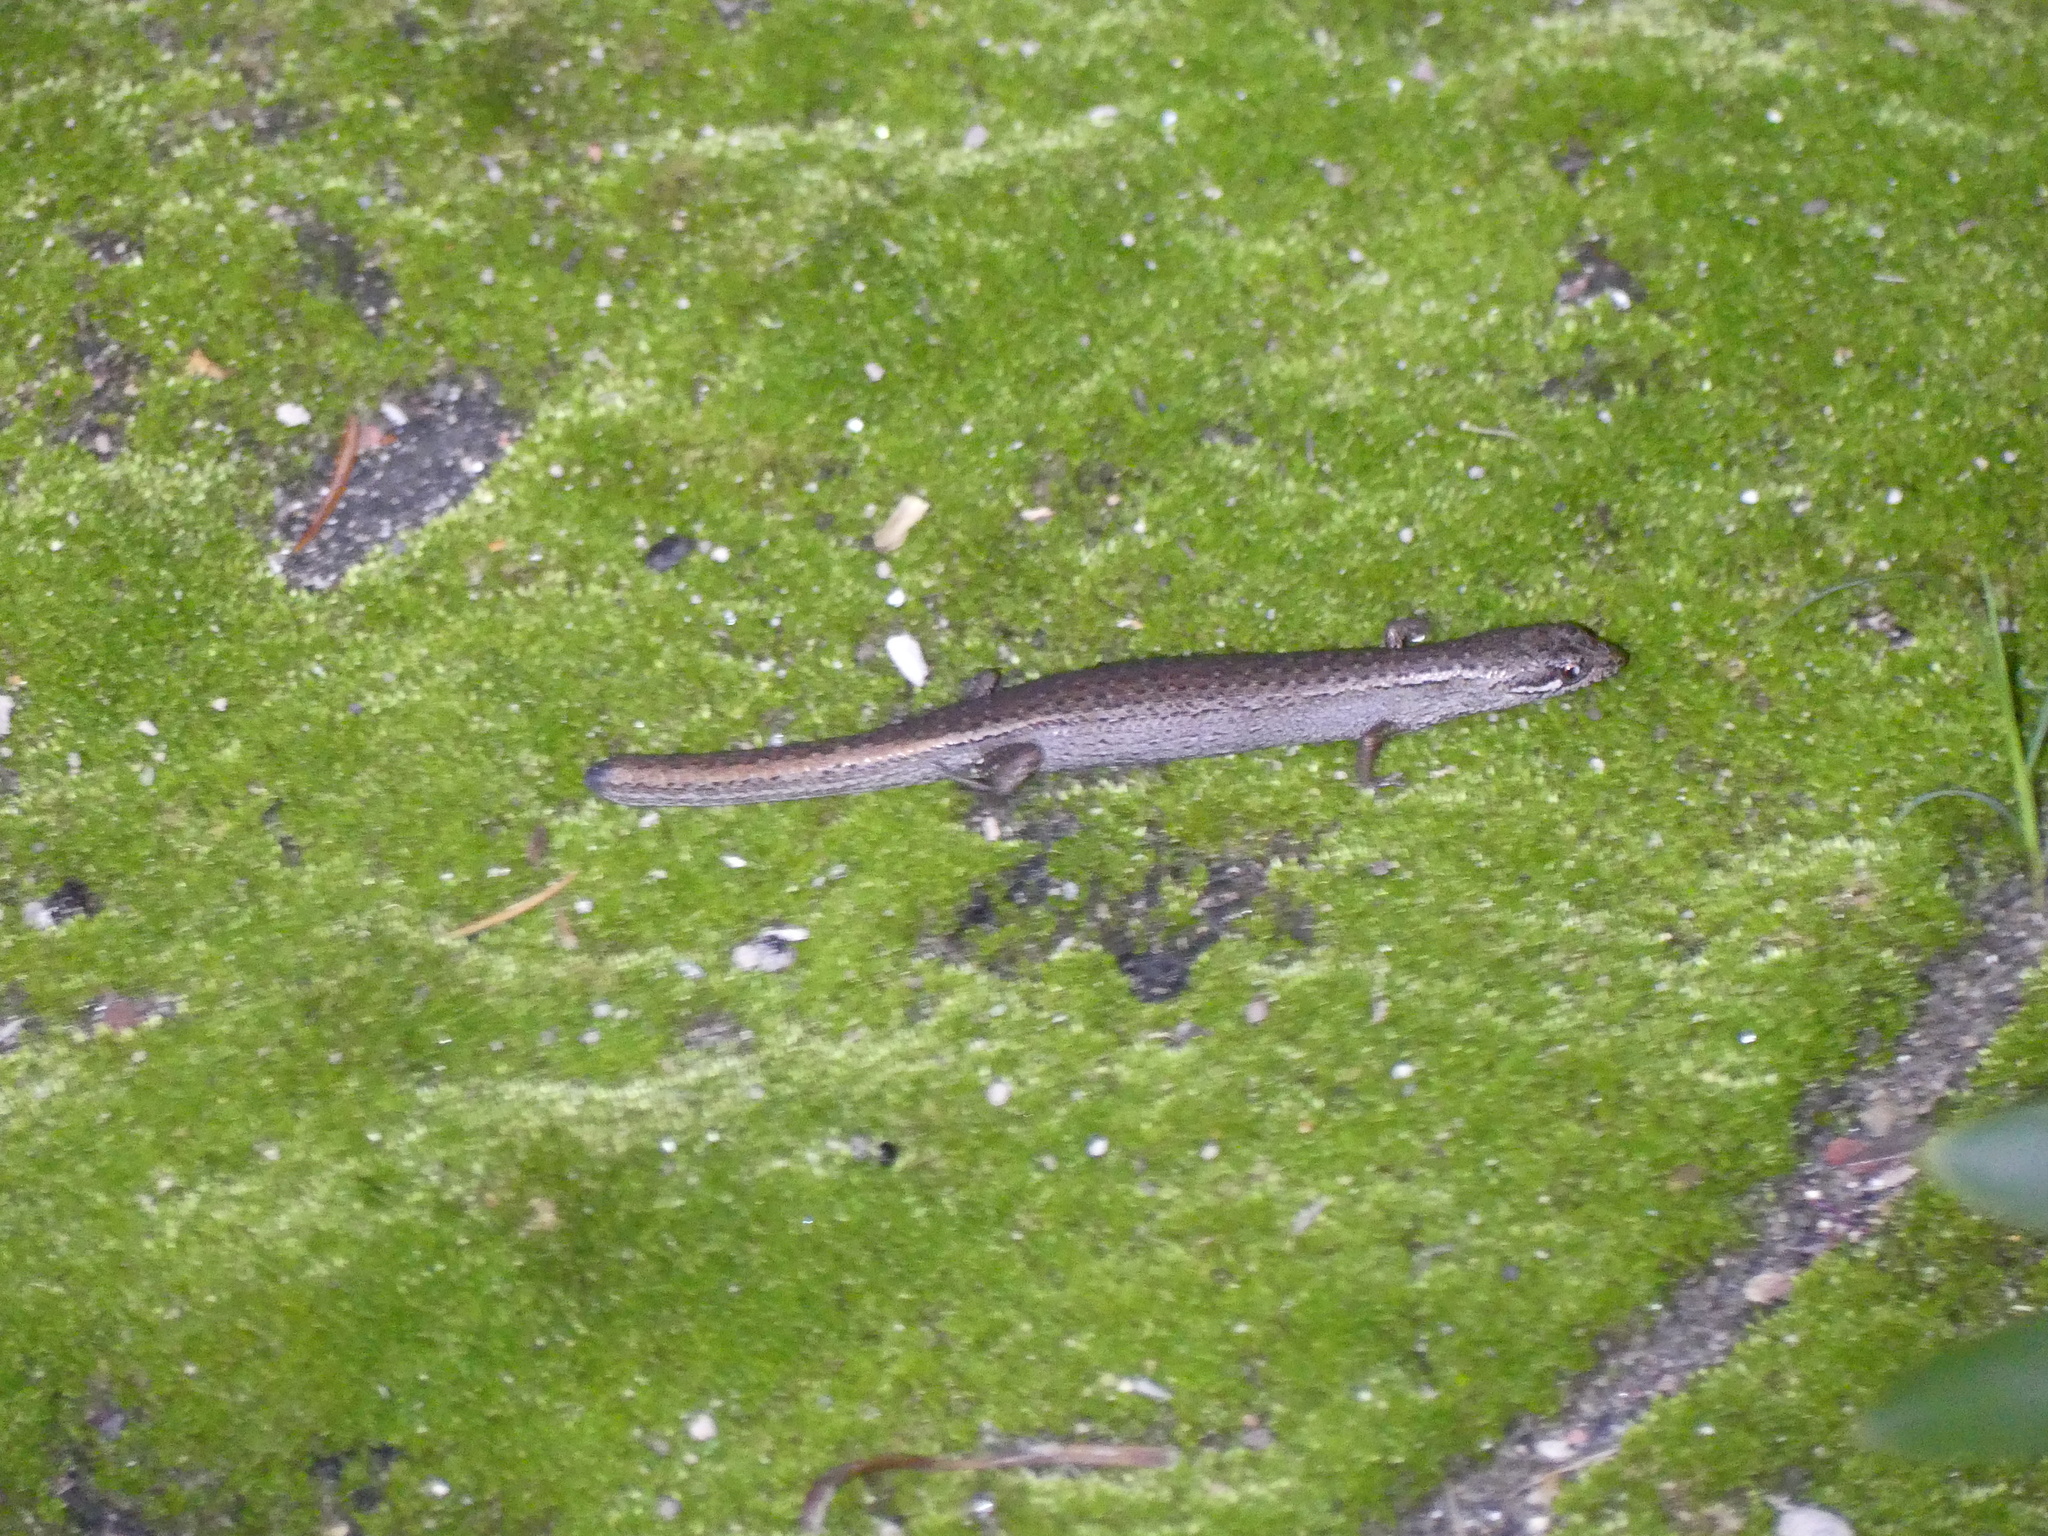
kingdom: Animalia
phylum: Chordata
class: Squamata
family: Scincidae
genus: Saproscincus
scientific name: Saproscincus mustelinus
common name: Southern weasel skink
